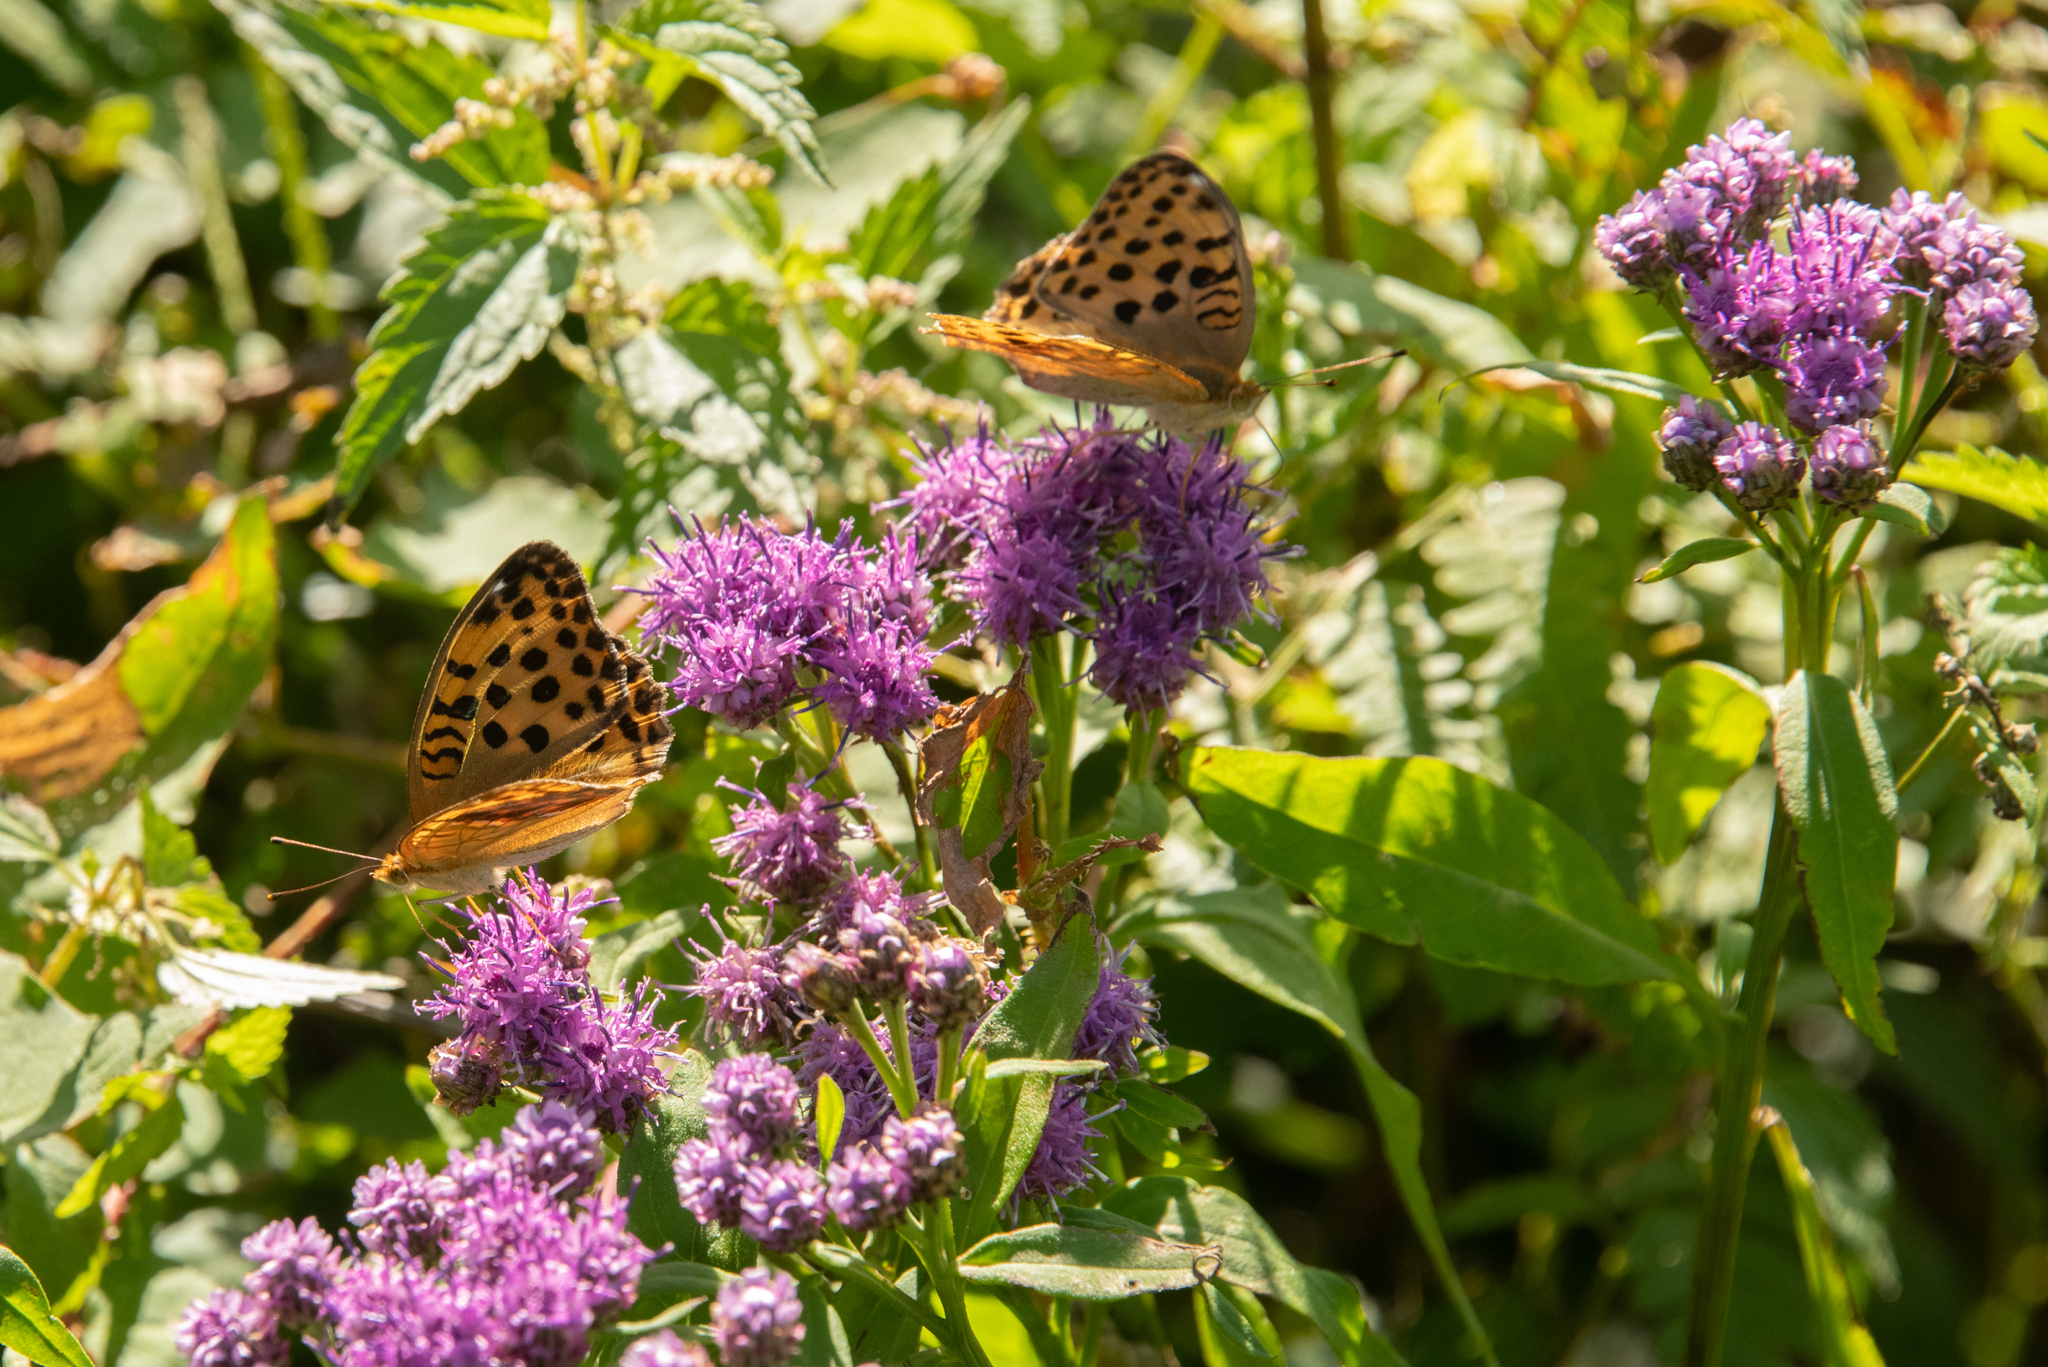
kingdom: Animalia
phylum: Arthropoda
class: Insecta
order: Lepidoptera
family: Nymphalidae
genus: Argyronome
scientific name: Argyronome laodice
